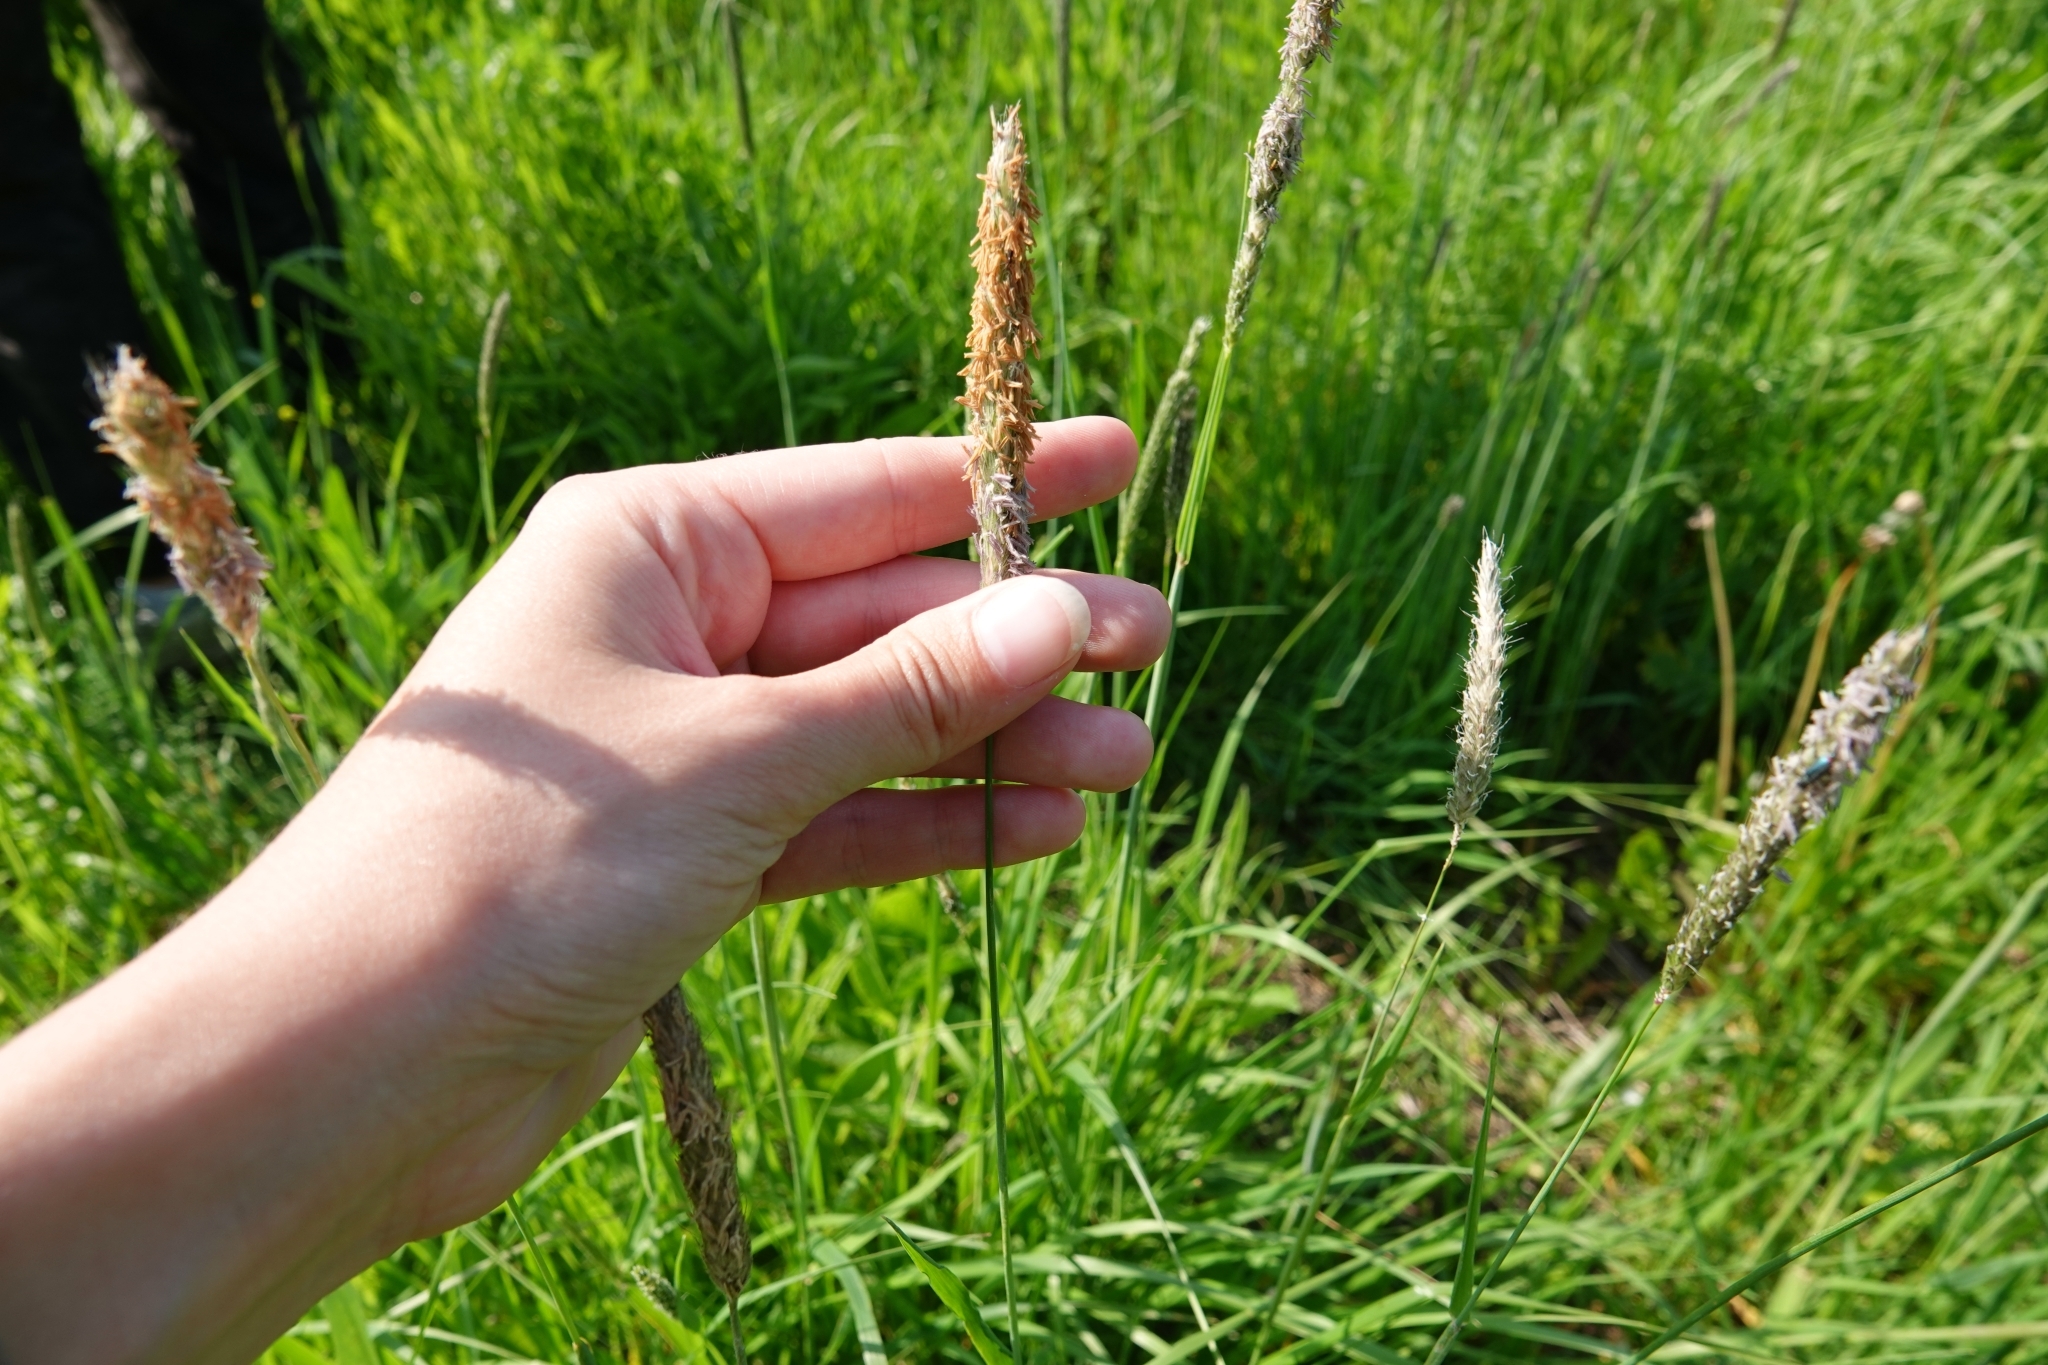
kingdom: Plantae
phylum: Tracheophyta
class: Liliopsida
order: Poales
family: Poaceae
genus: Alopecurus
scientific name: Alopecurus pratensis
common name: Meadow foxtail
